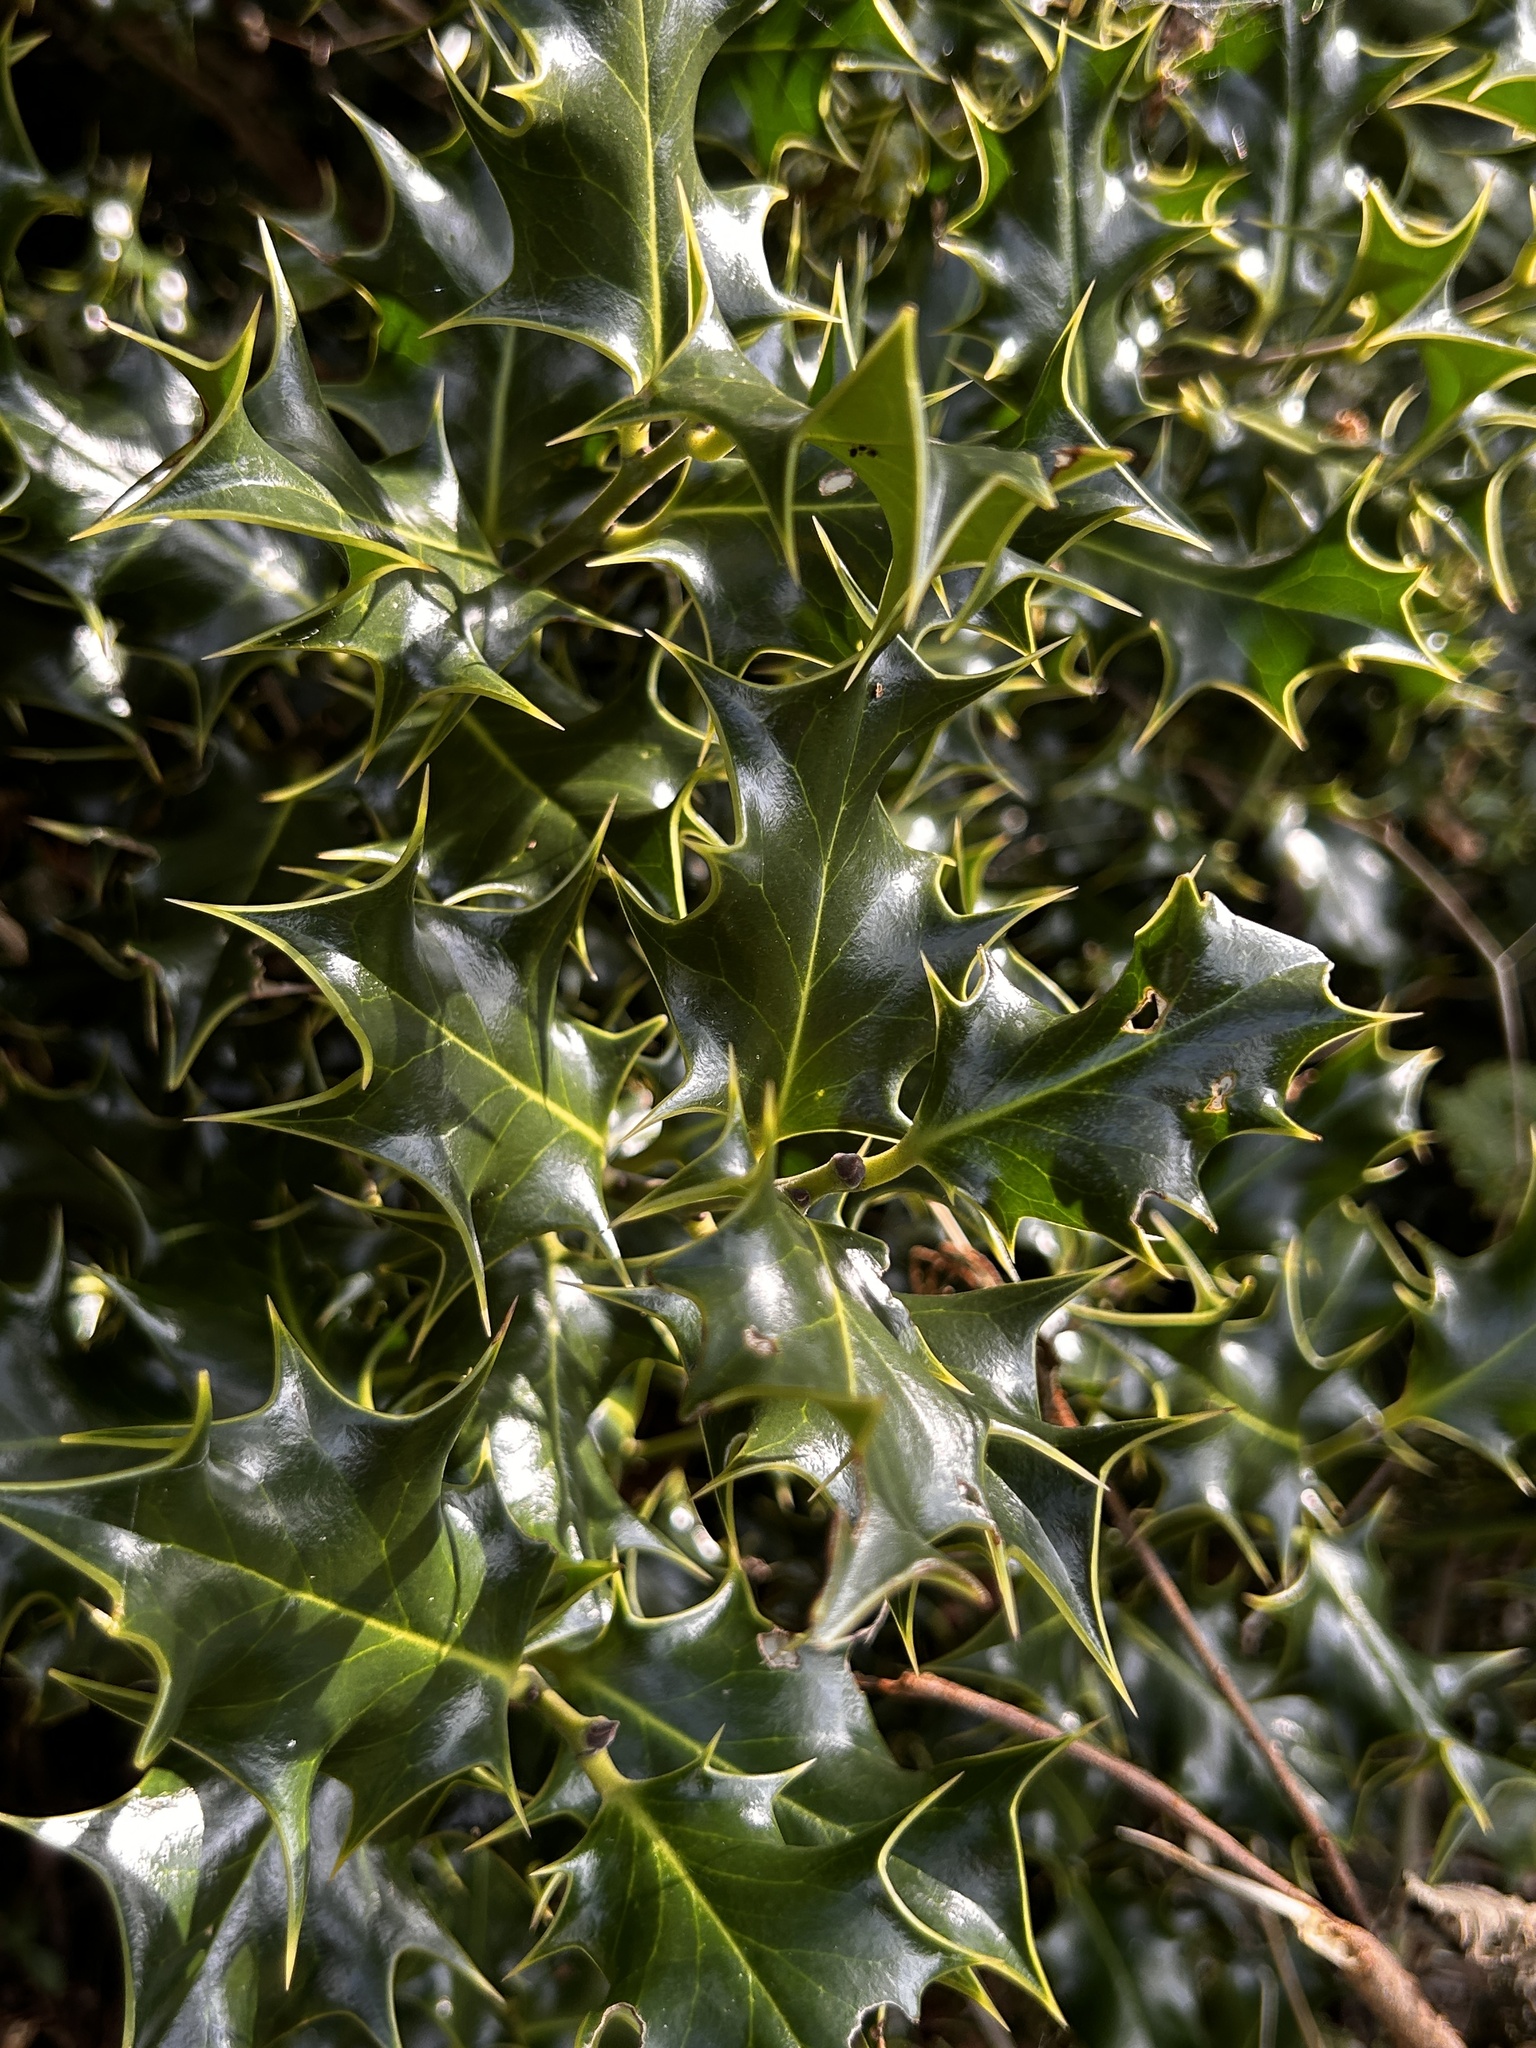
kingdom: Plantae
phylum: Tracheophyta
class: Magnoliopsida
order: Aquifoliales
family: Aquifoliaceae
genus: Ilex
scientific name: Ilex aquifolium
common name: English holly
